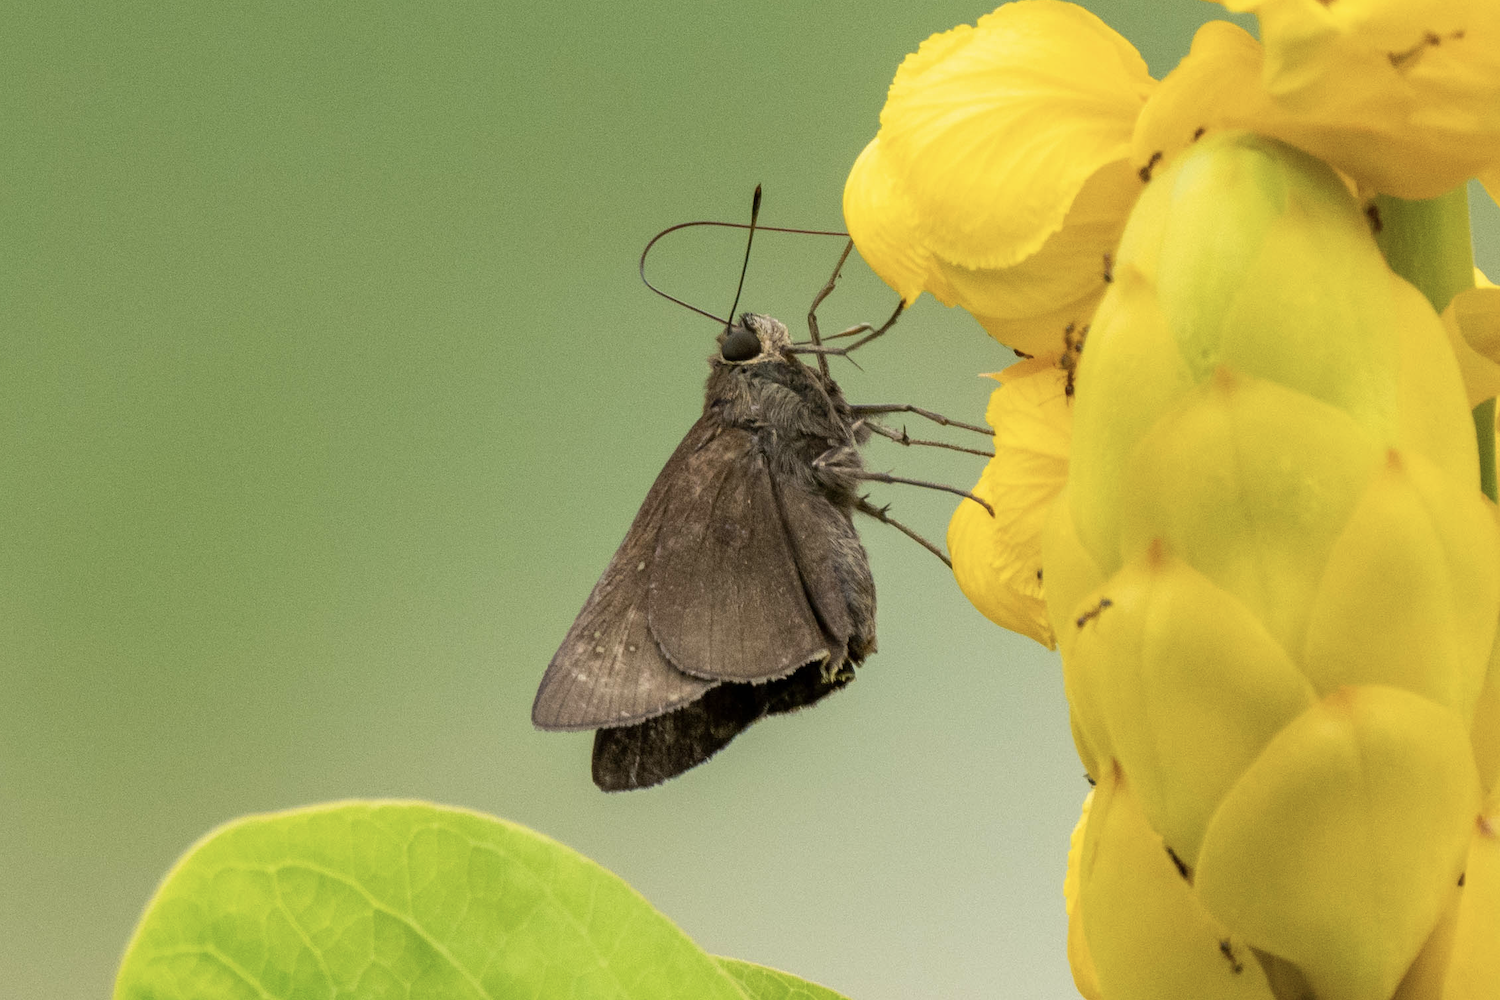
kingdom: Animalia
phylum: Arthropoda
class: Insecta
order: Lepidoptera
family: Hesperiidae
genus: Caltoris
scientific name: Caltoris cahira
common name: Colon swift
